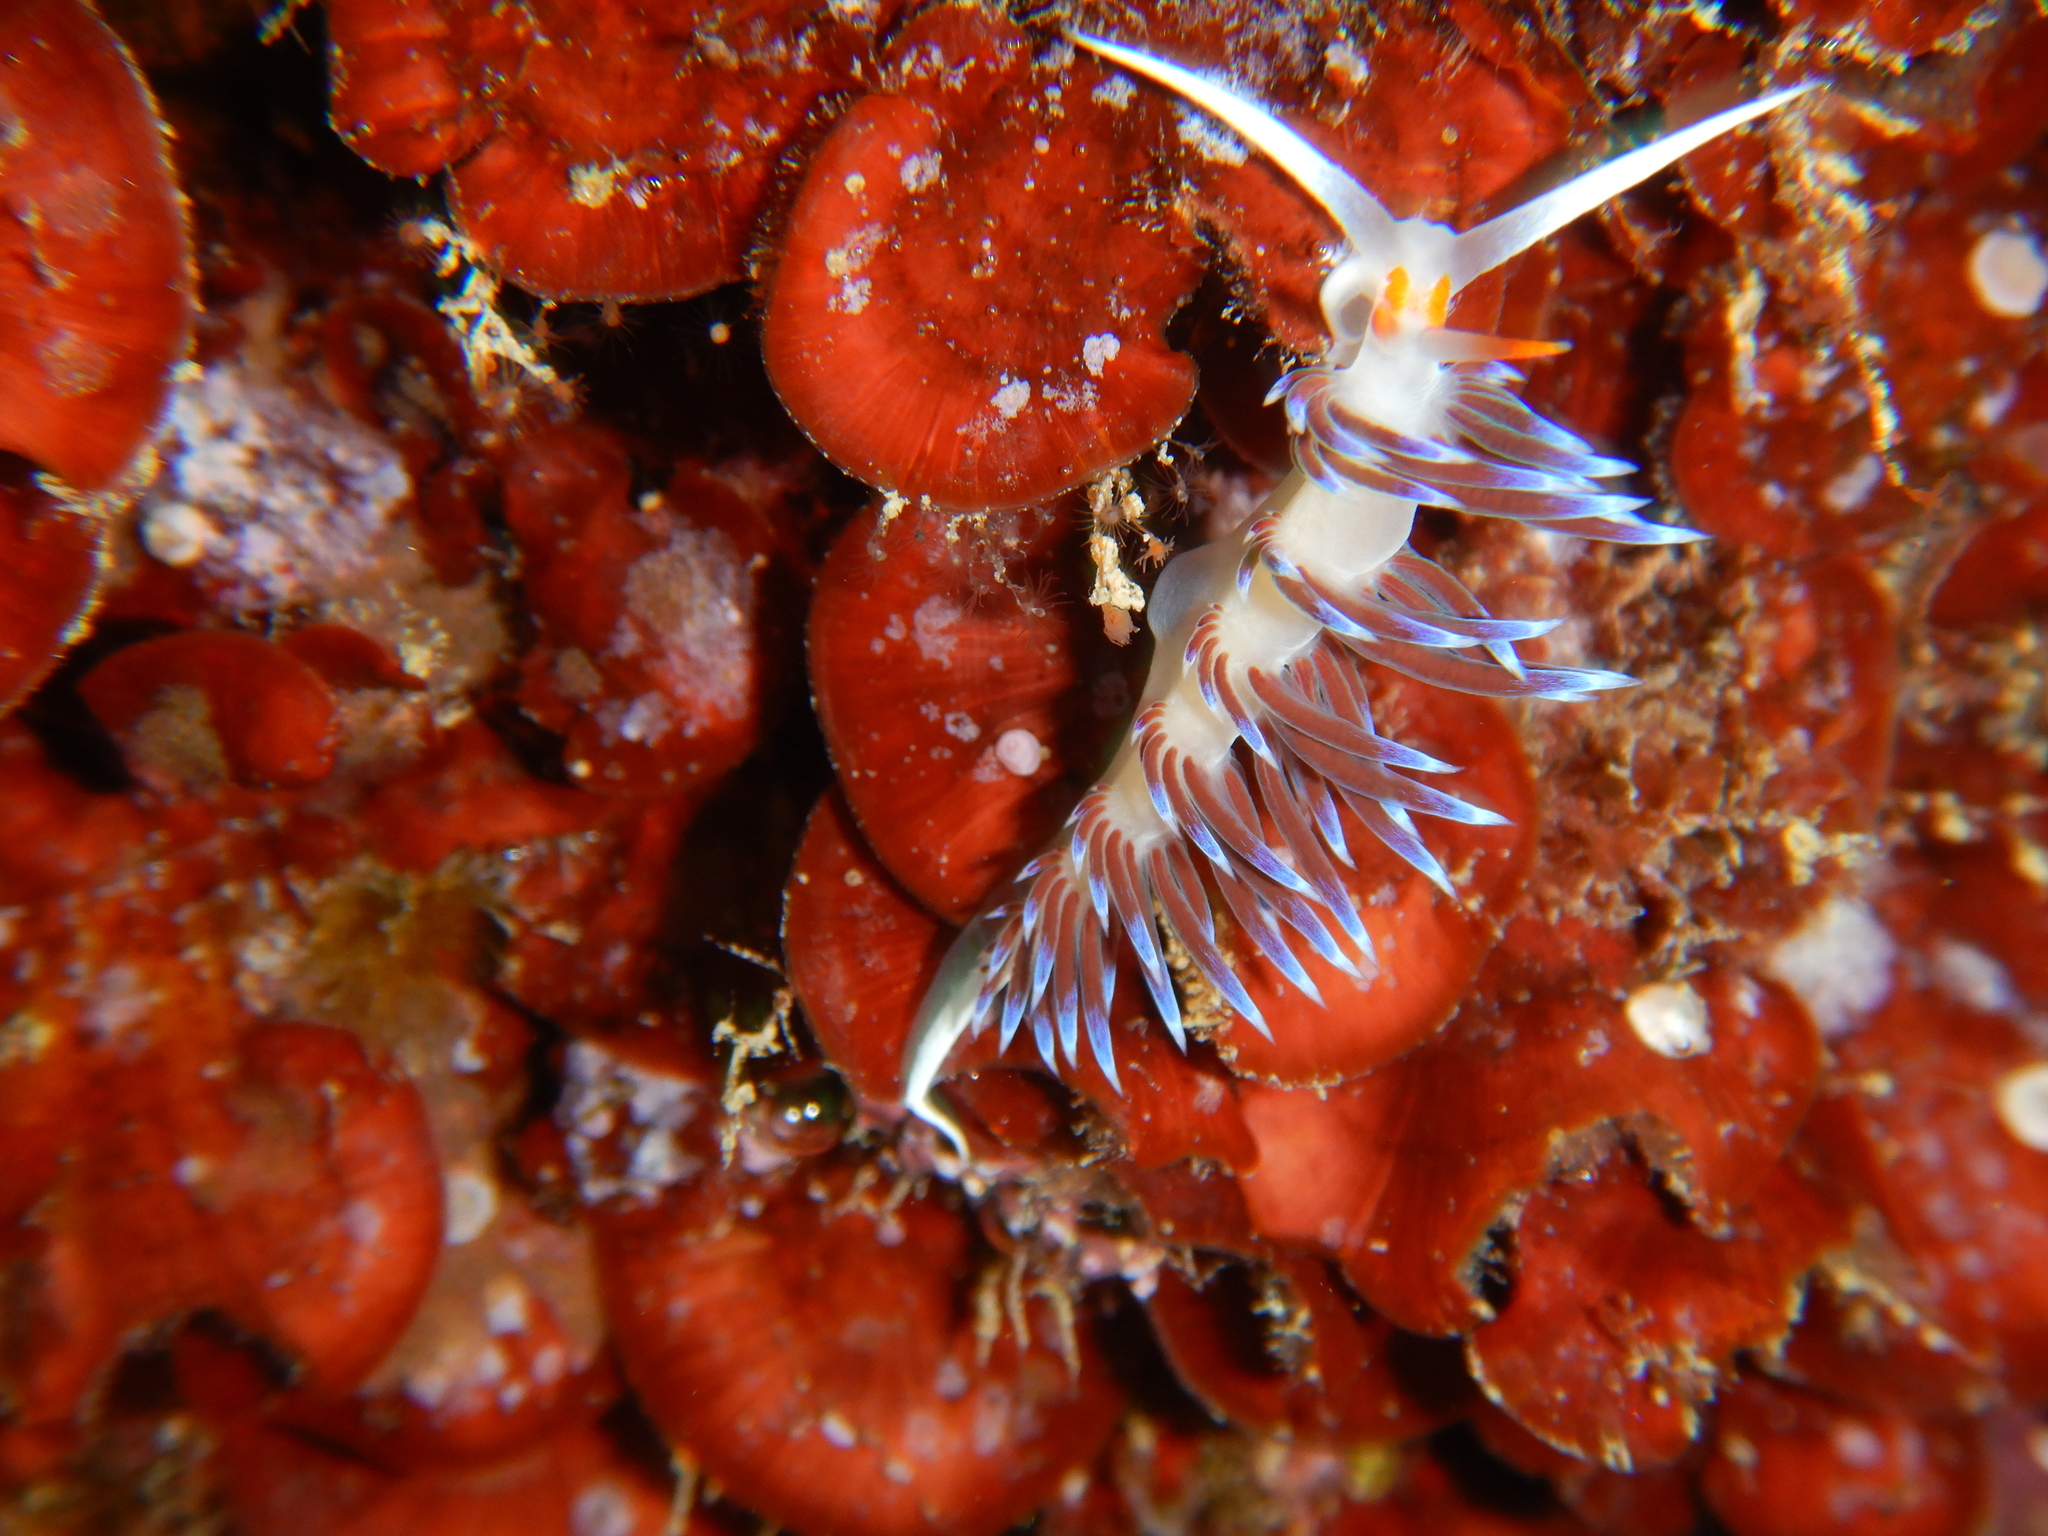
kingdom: Animalia
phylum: Mollusca
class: Gastropoda
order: Nudibranchia
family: Facelinidae
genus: Cratena
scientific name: Cratena peregrina
